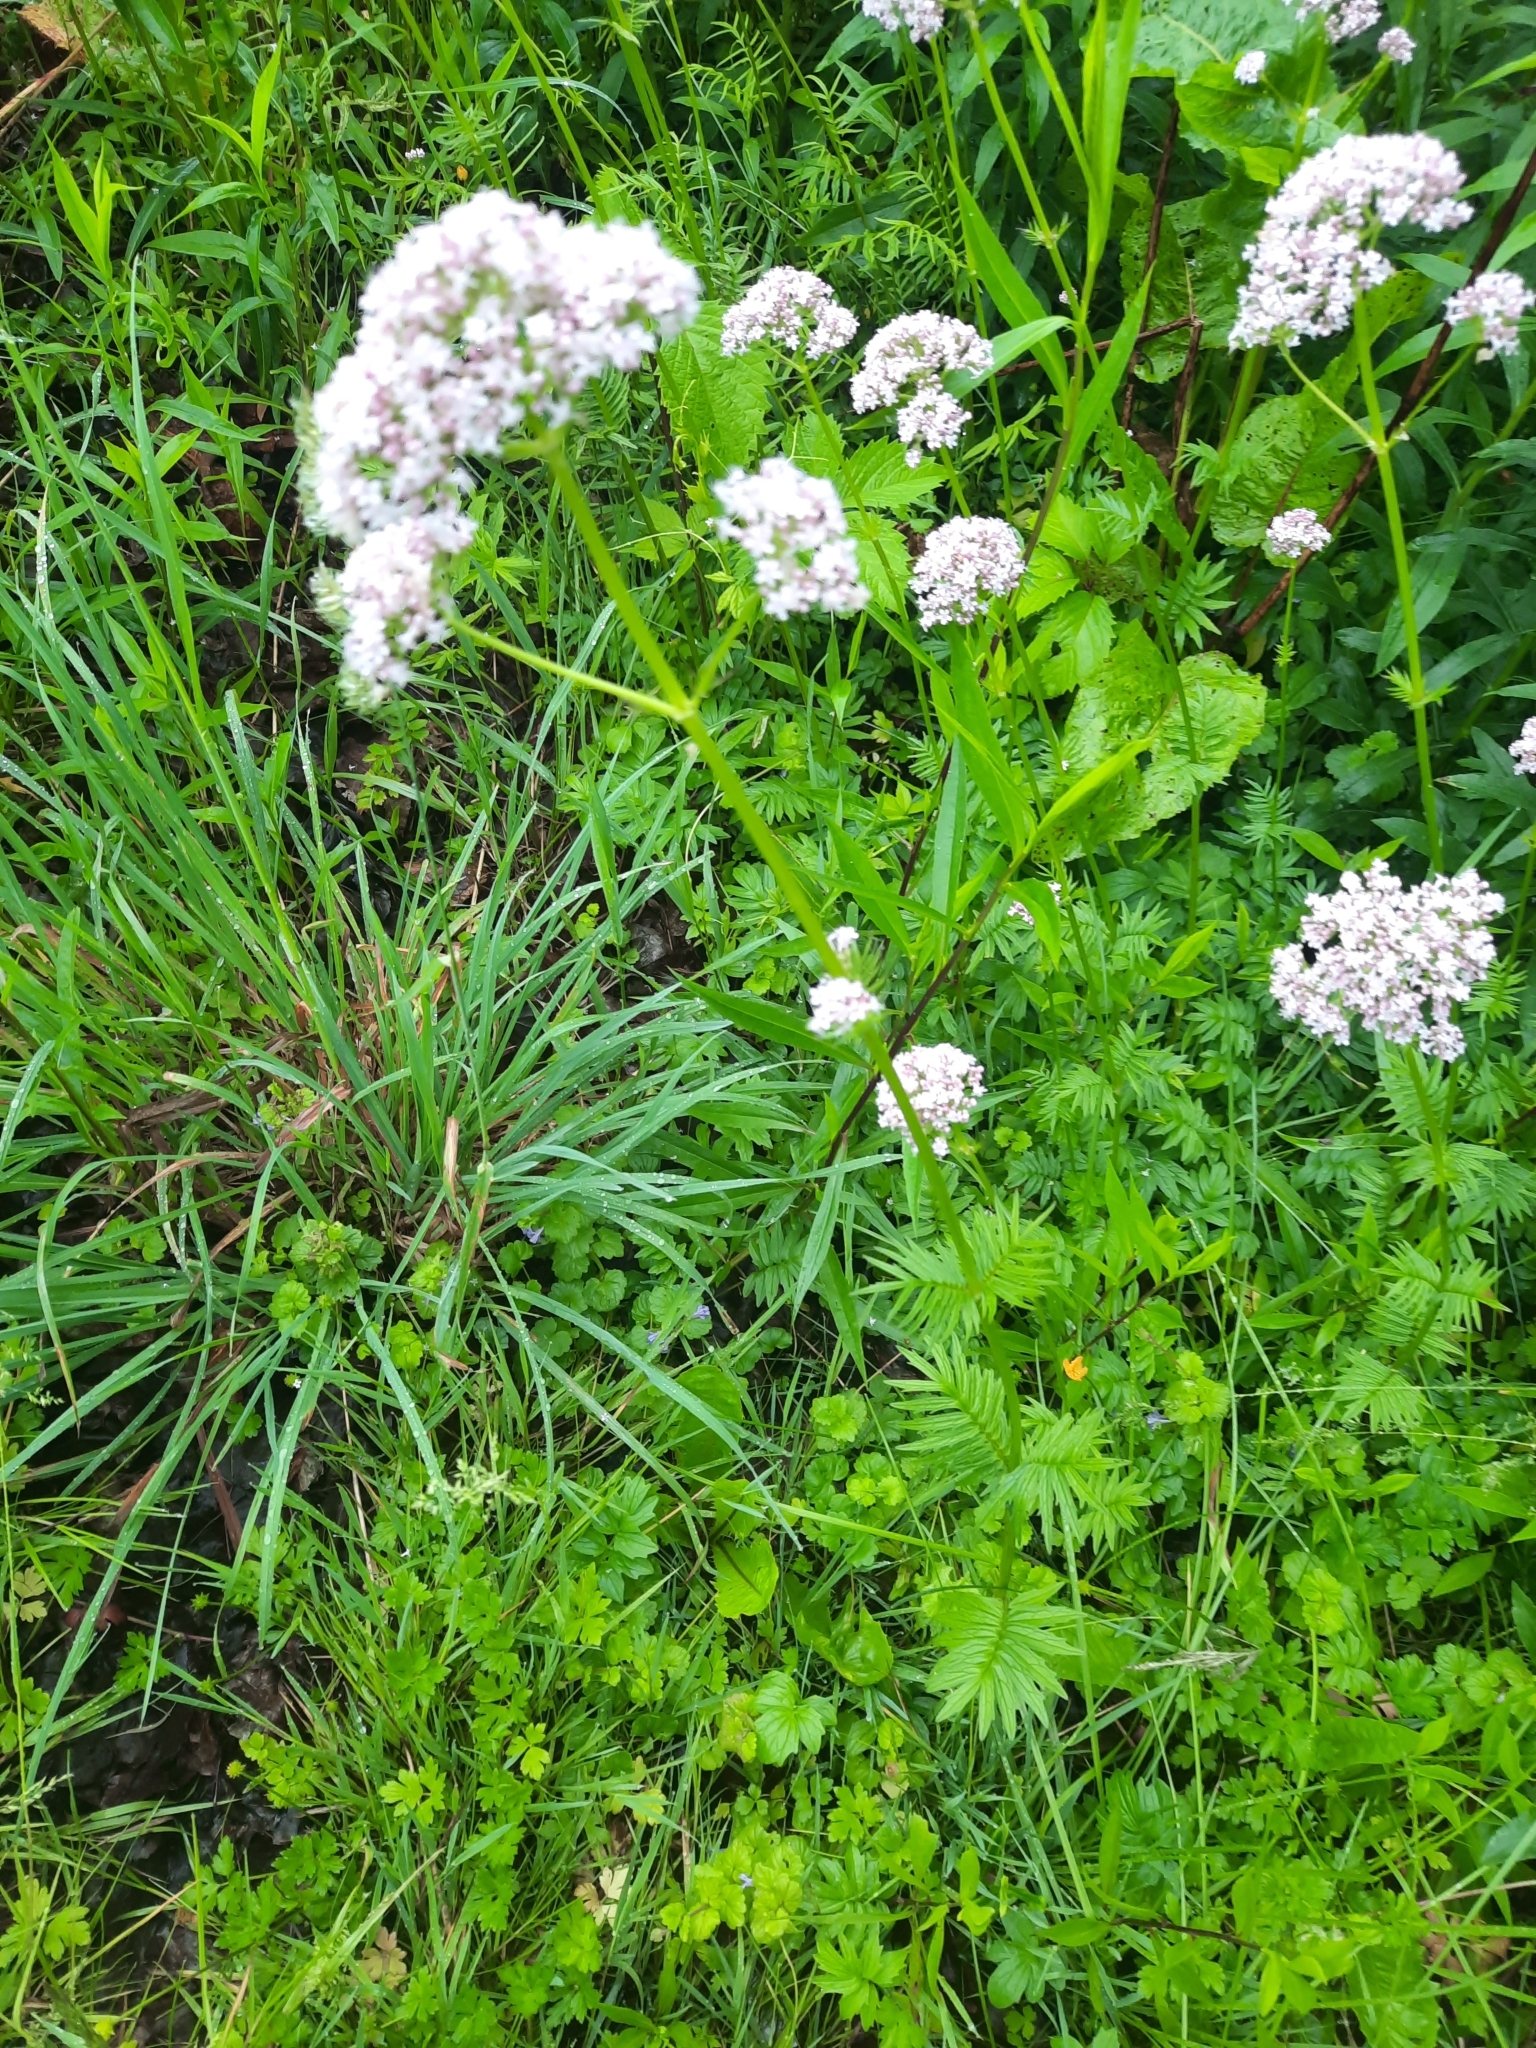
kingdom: Plantae
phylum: Tracheophyta
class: Magnoliopsida
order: Dipsacales
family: Caprifoliaceae
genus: Valeriana
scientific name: Valeriana officinalis
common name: Common valerian
